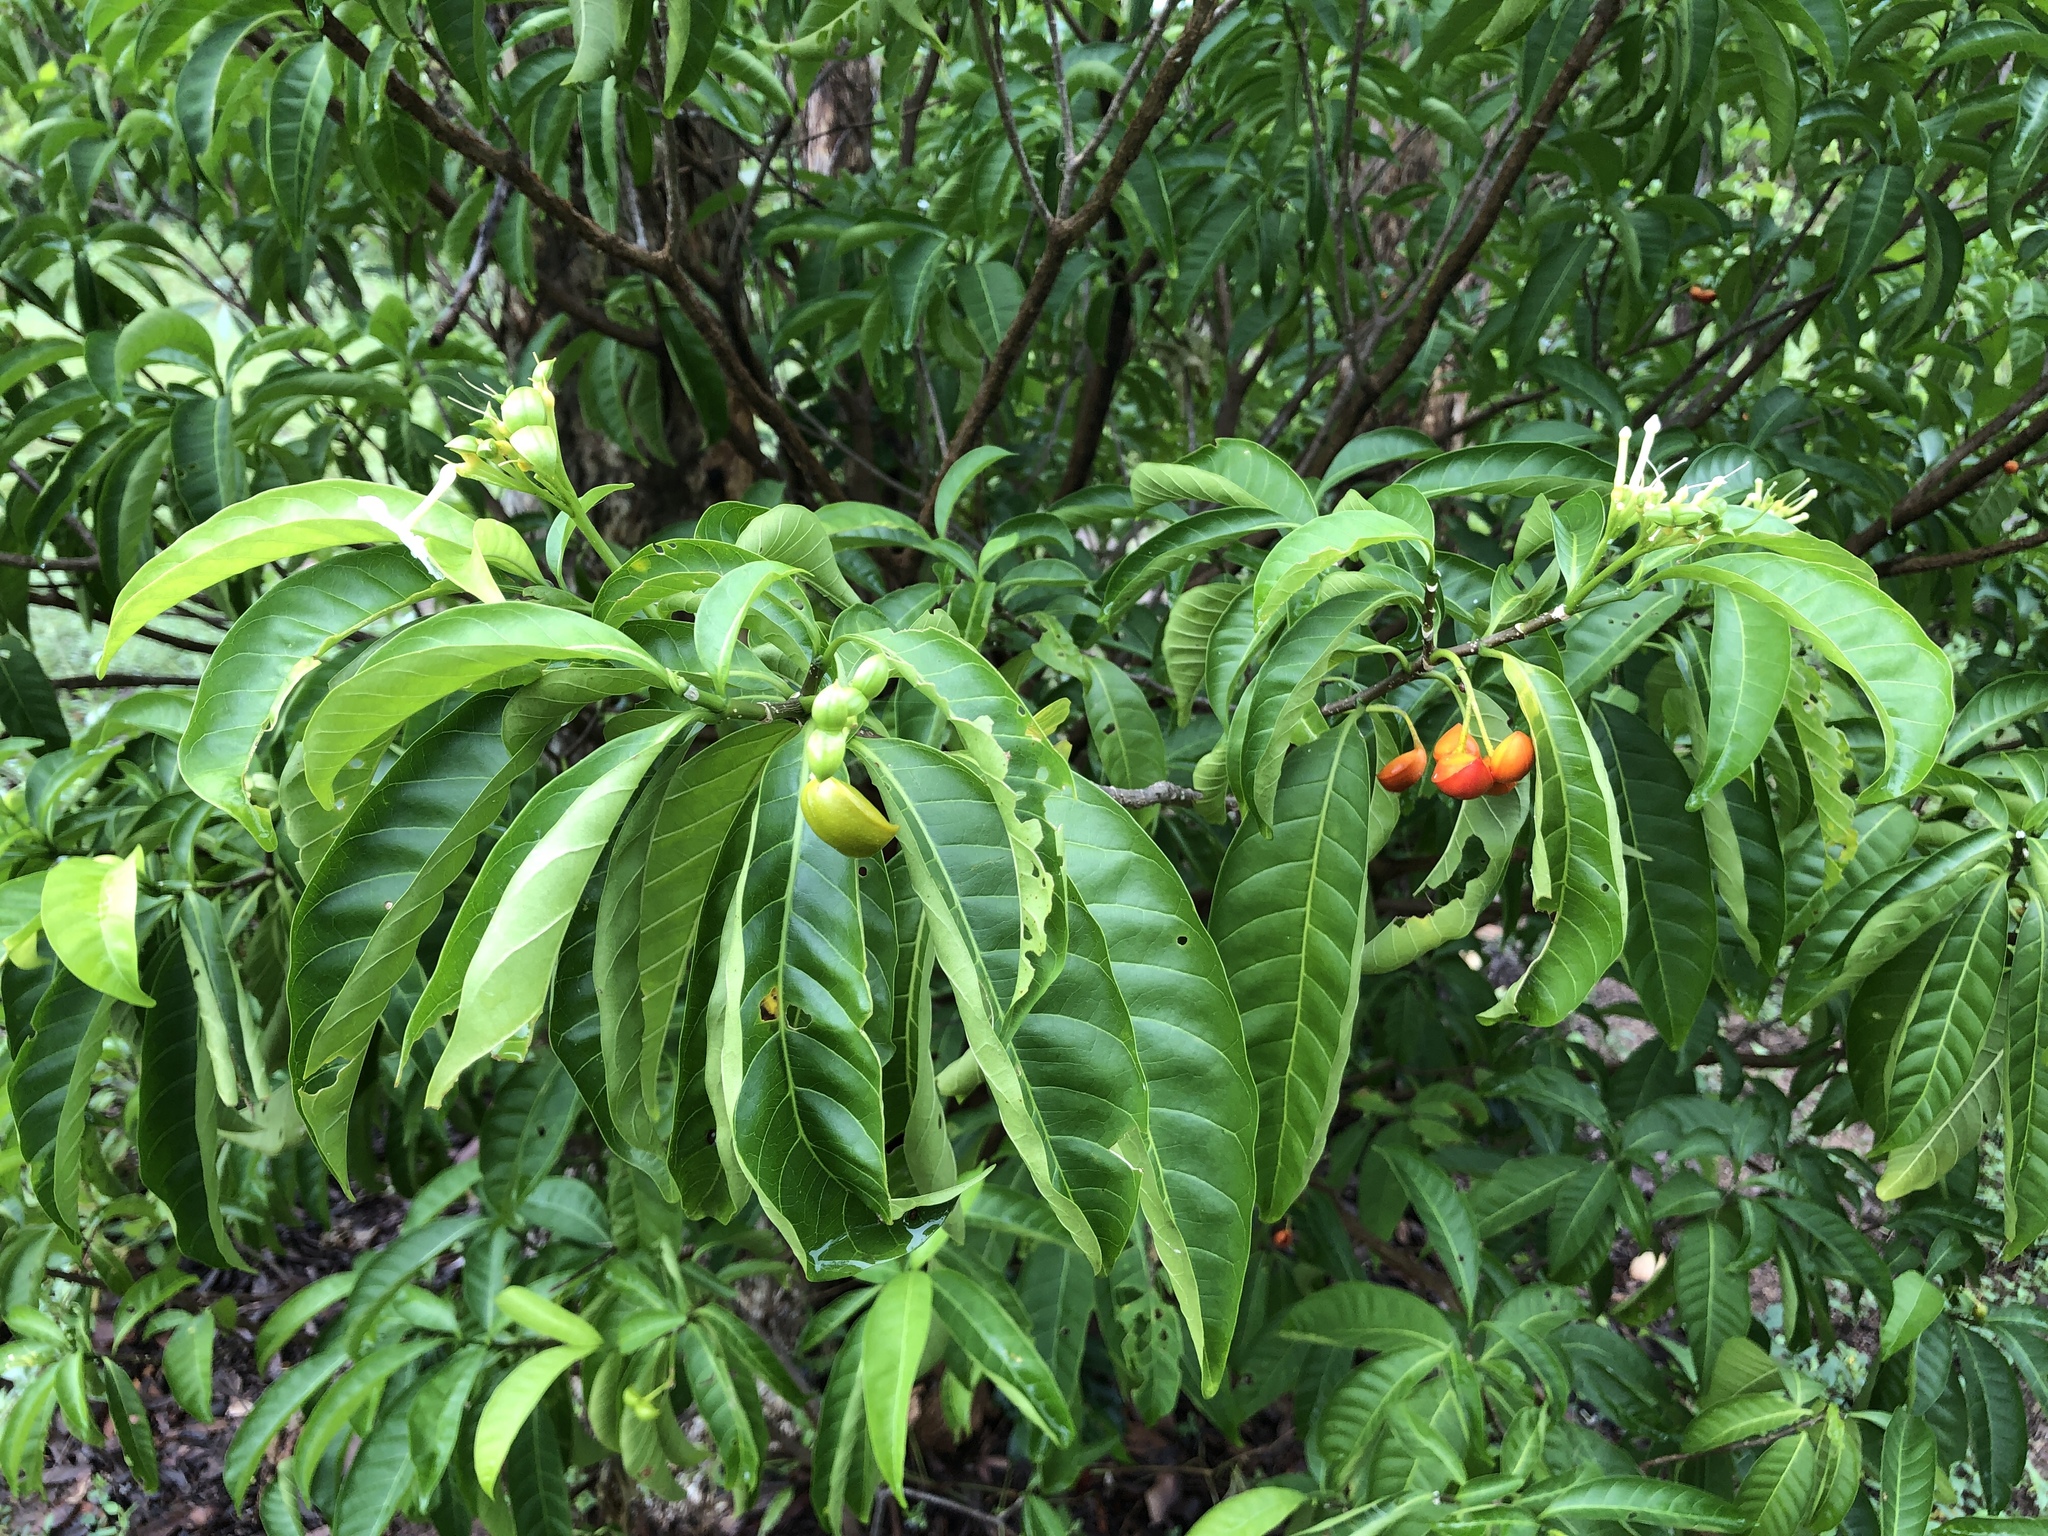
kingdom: Plantae
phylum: Tracheophyta
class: Magnoliopsida
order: Gentianales
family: Apocynaceae
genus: Tabernaemontana
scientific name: Tabernaemontana pandacaqui
